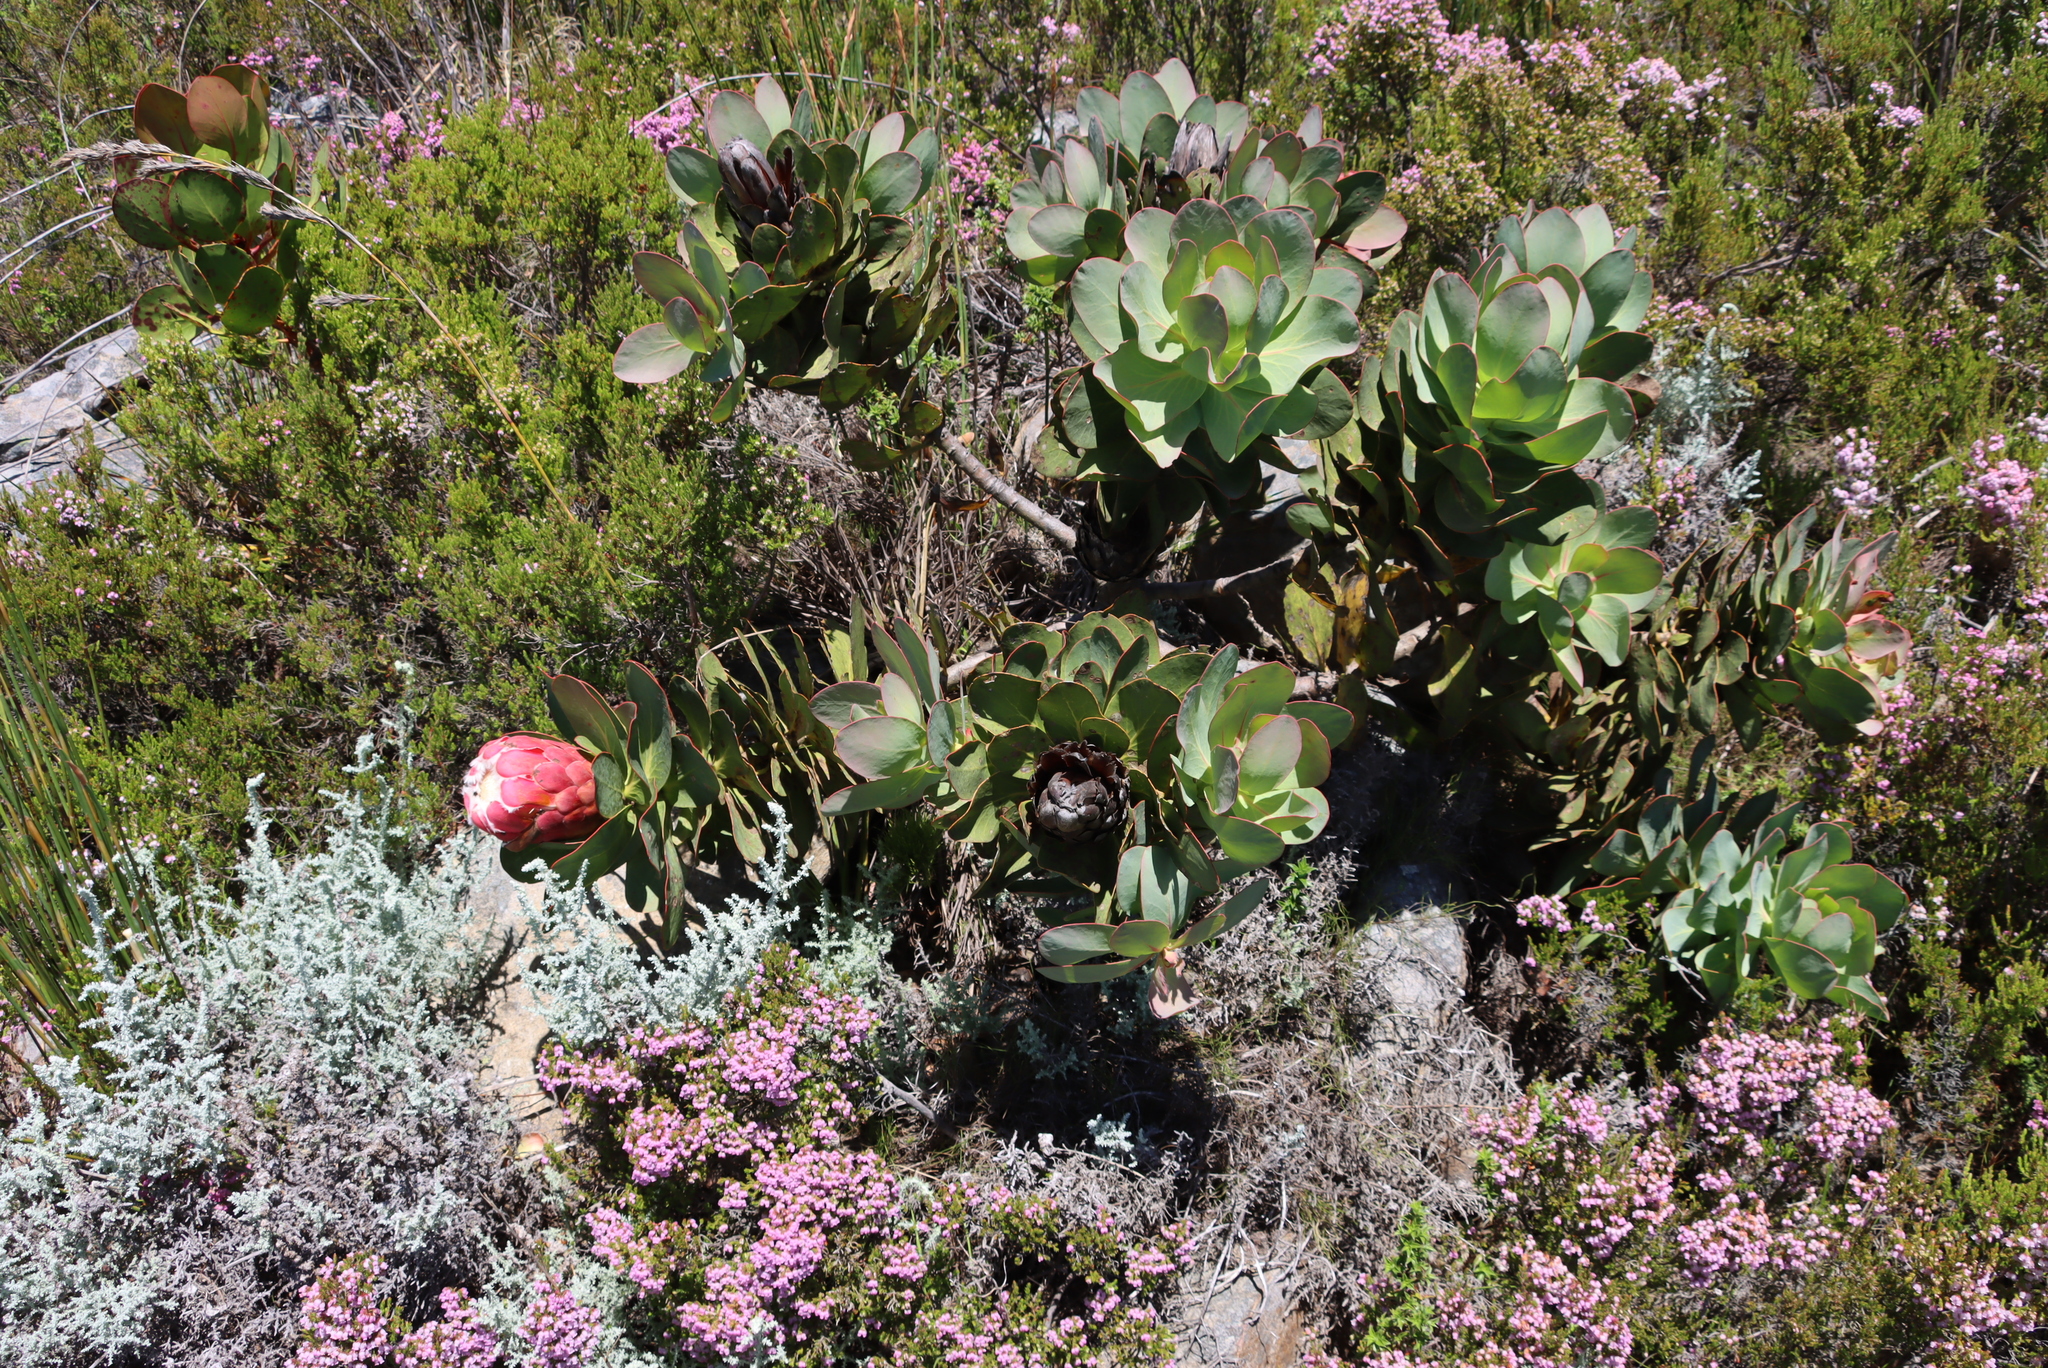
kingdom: Plantae
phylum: Tracheophyta
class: Magnoliopsida
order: Proteales
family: Proteaceae
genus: Protea
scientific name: Protea grandiceps
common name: Red sugarbush
